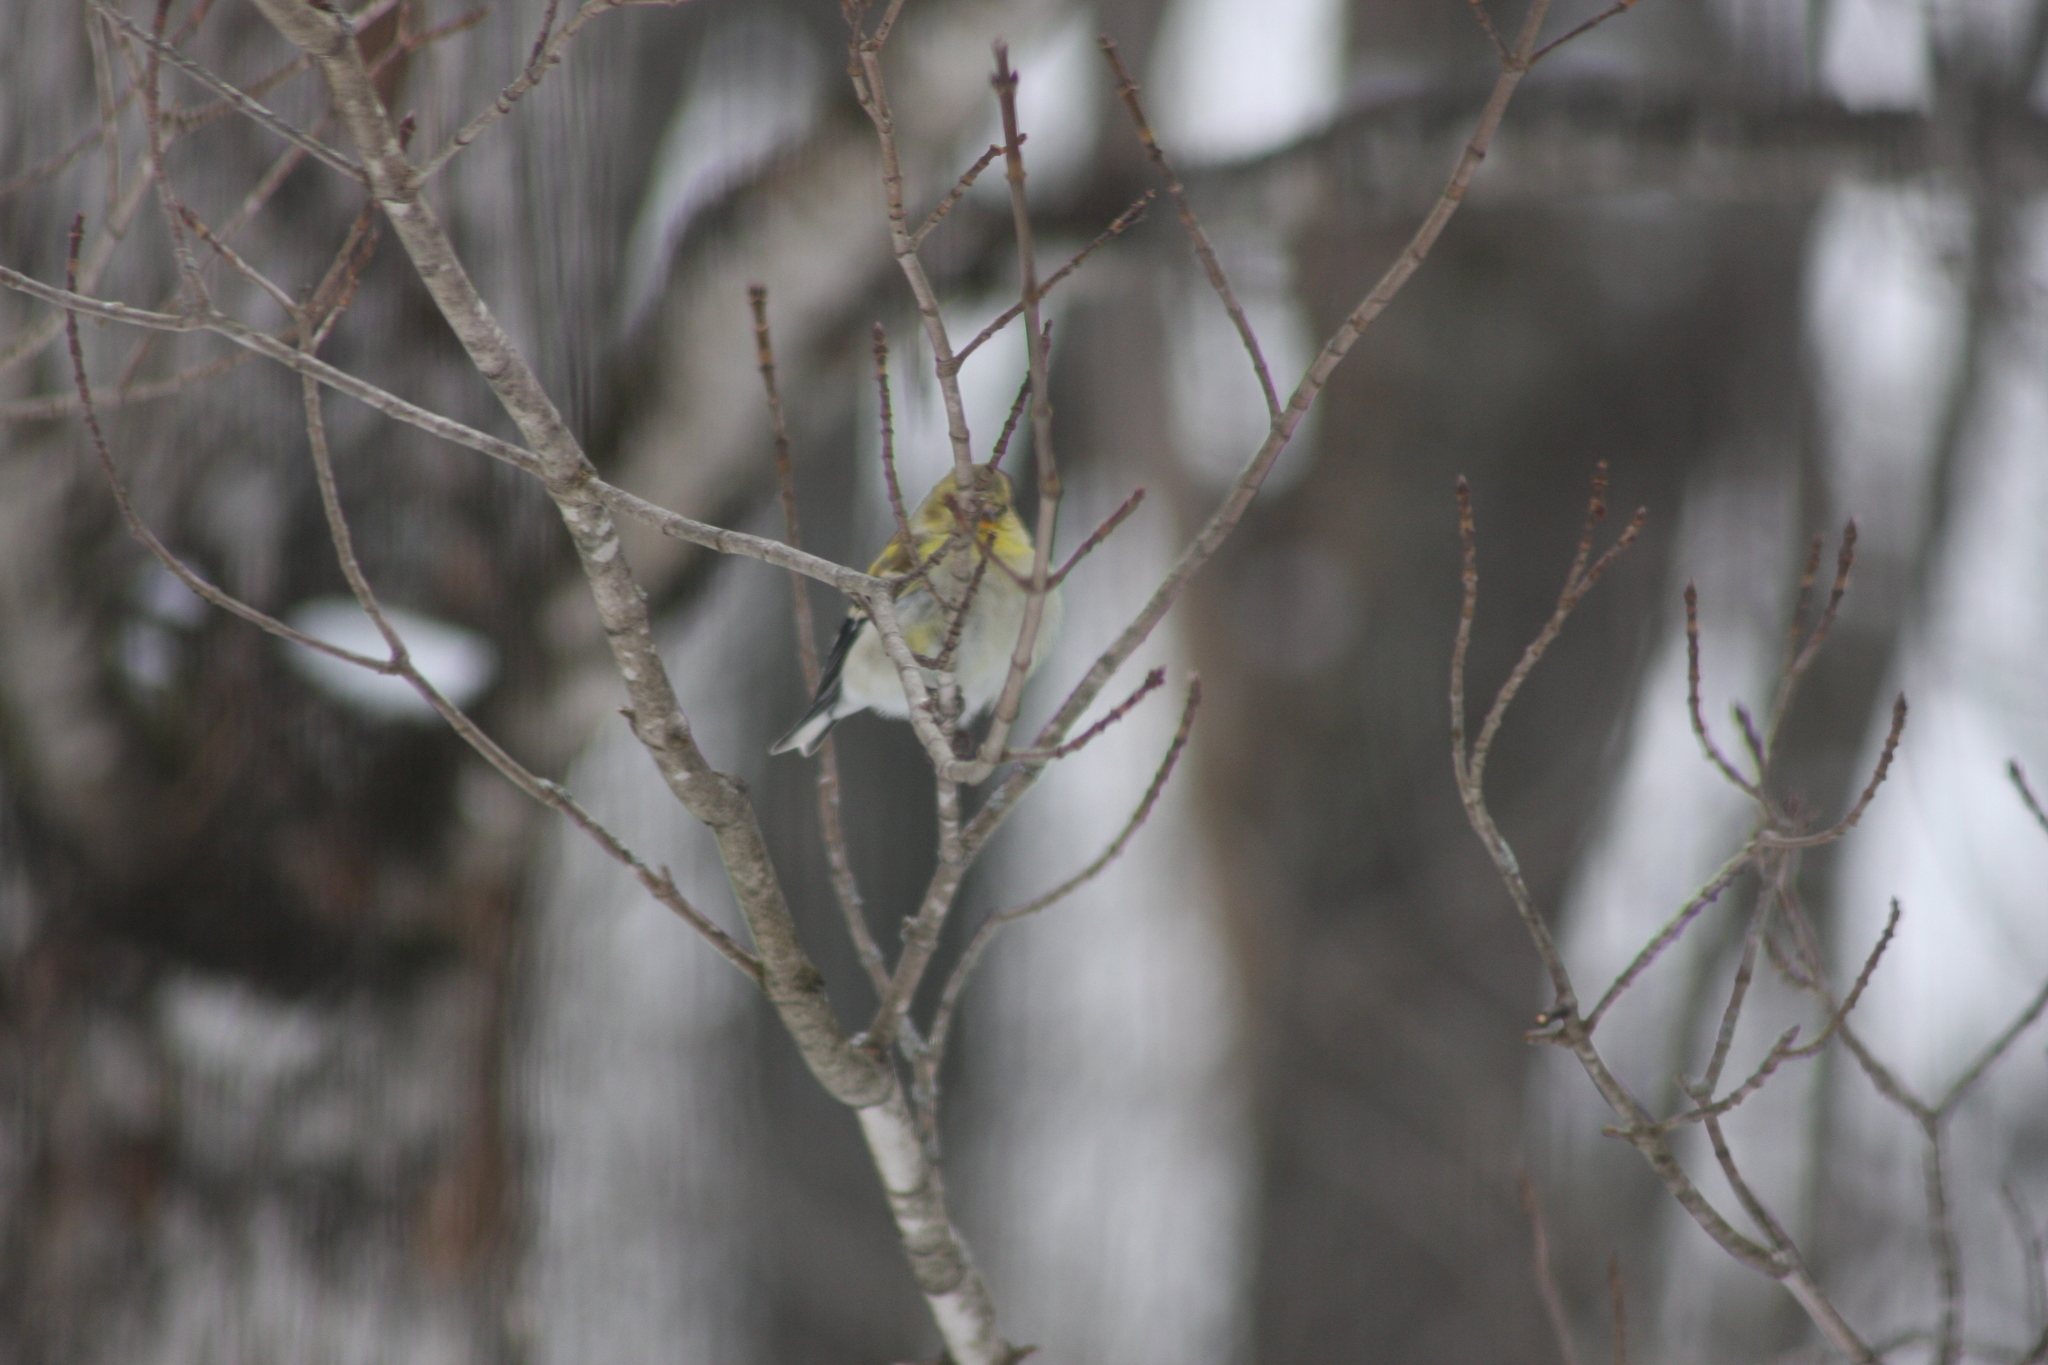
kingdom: Animalia
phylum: Chordata
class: Aves
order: Passeriformes
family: Fringillidae
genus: Spinus
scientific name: Spinus tristis
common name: American goldfinch
